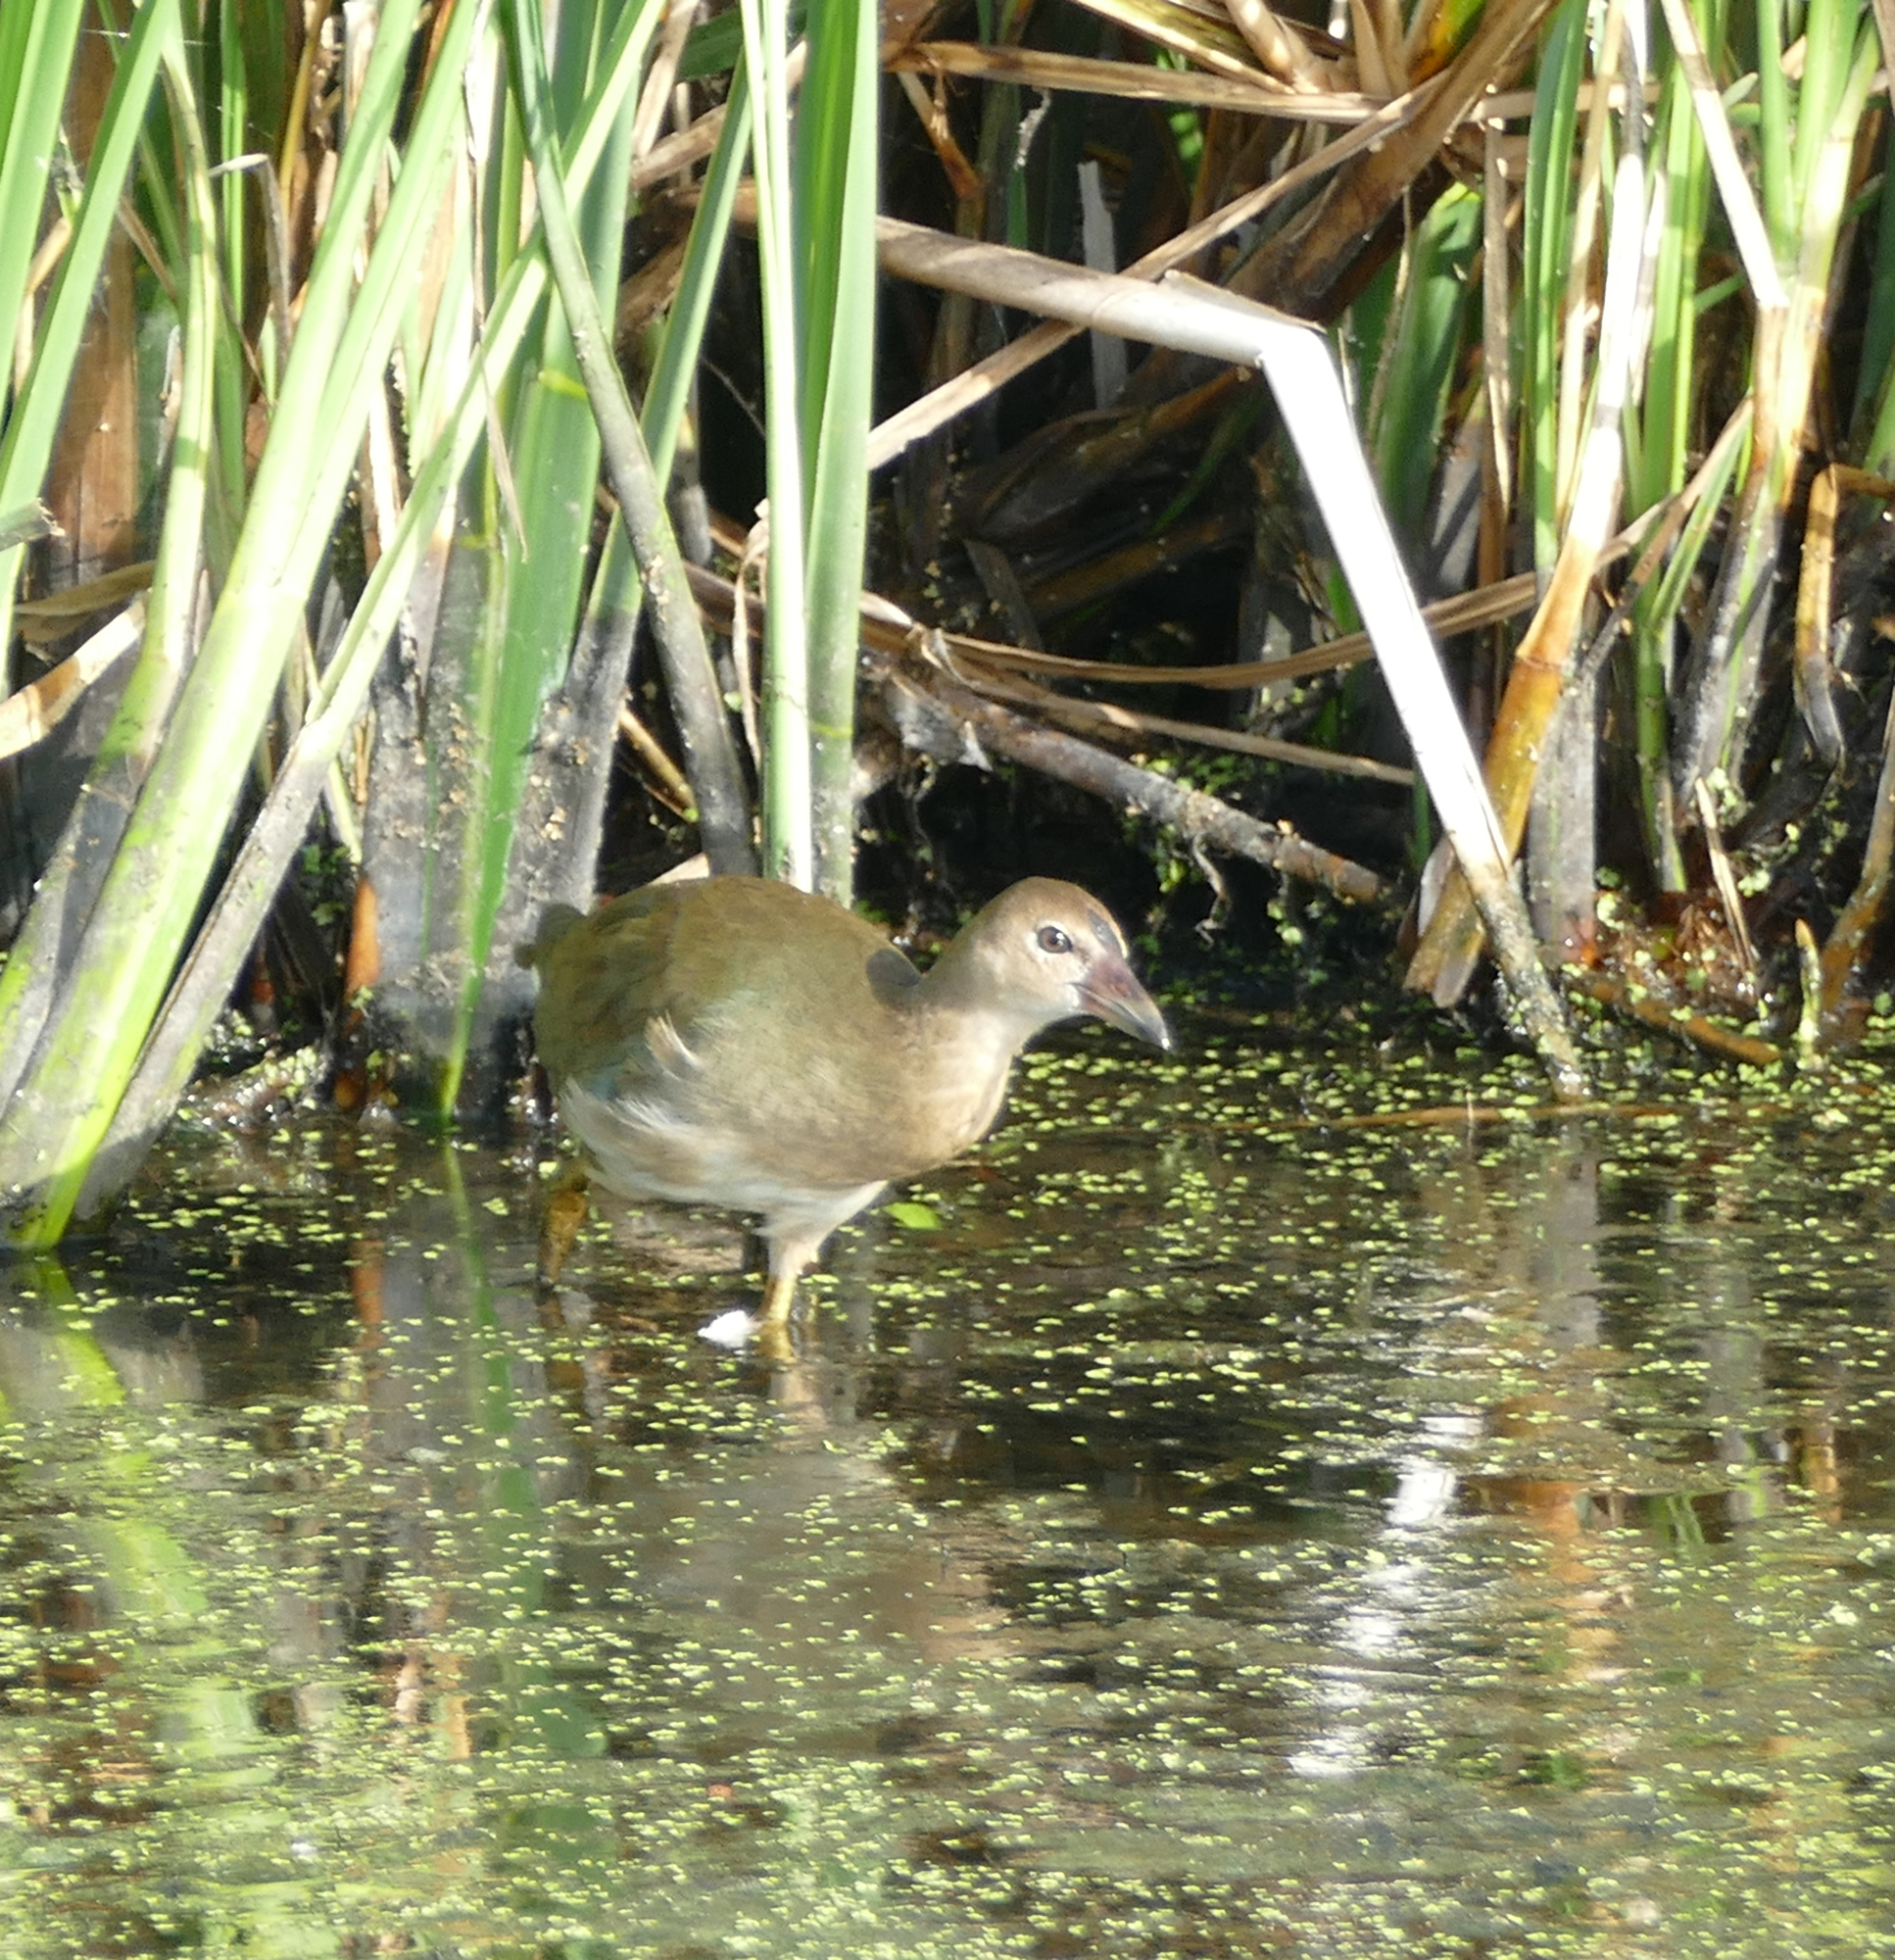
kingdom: Animalia
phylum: Chordata
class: Aves
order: Gruiformes
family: Rallidae
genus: Porphyrio
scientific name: Porphyrio martinica
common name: Purple gallinule
